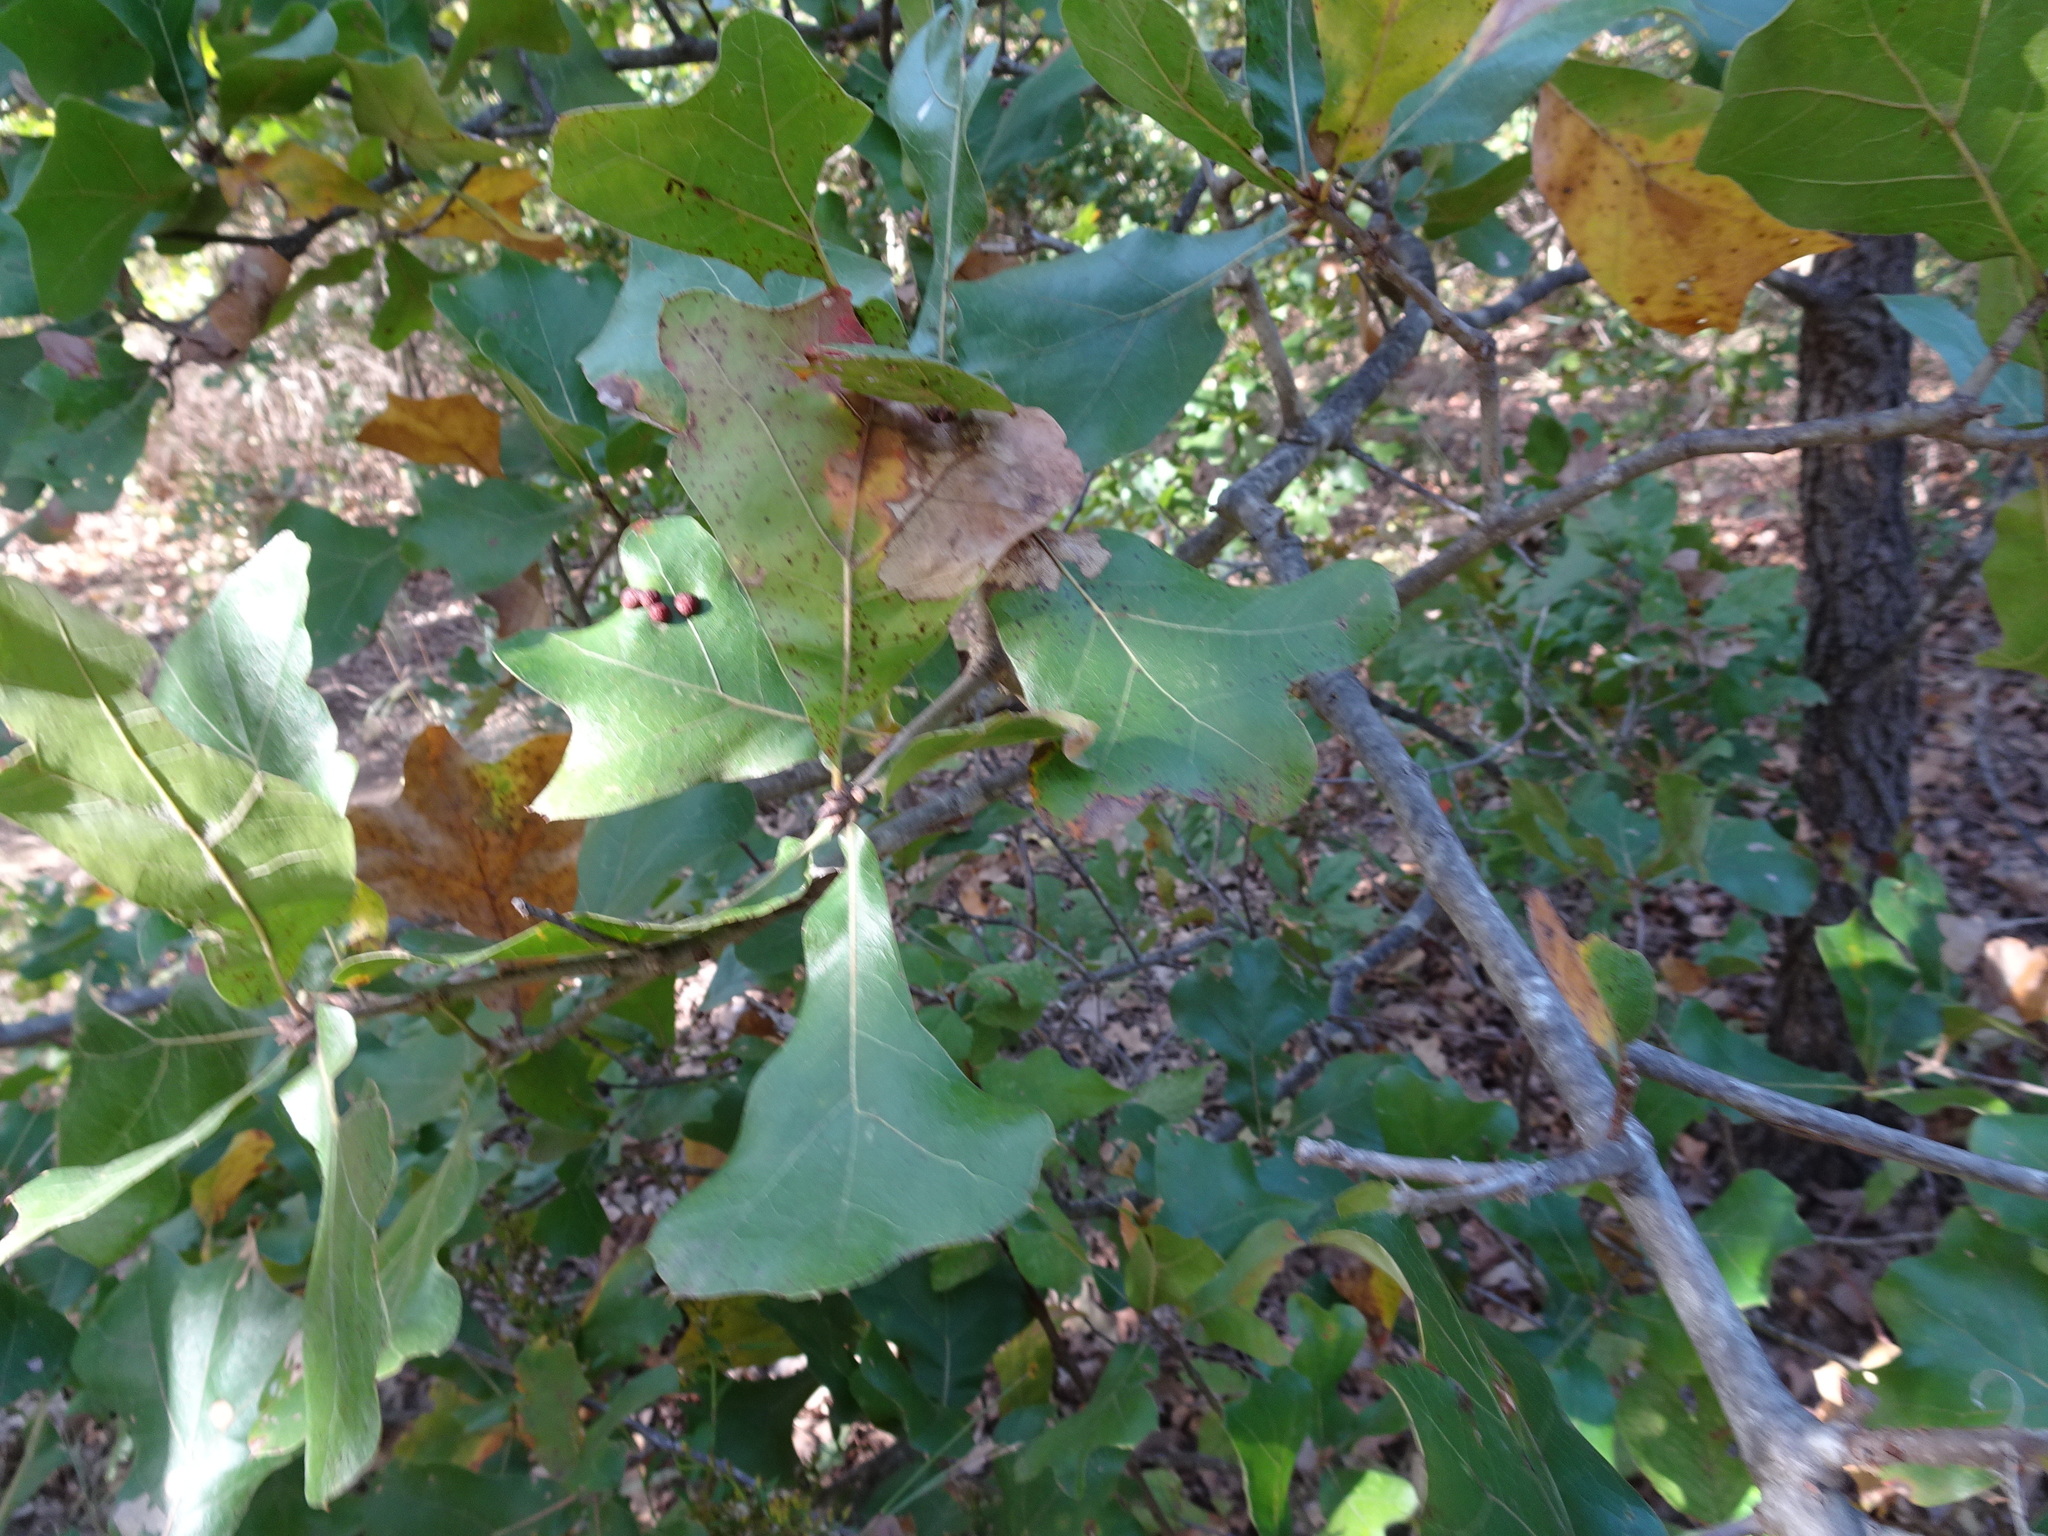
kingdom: Plantae
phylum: Tracheophyta
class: Magnoliopsida
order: Fagales
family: Fagaceae
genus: Quercus
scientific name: Quercus marilandica
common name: Blackjack oak
